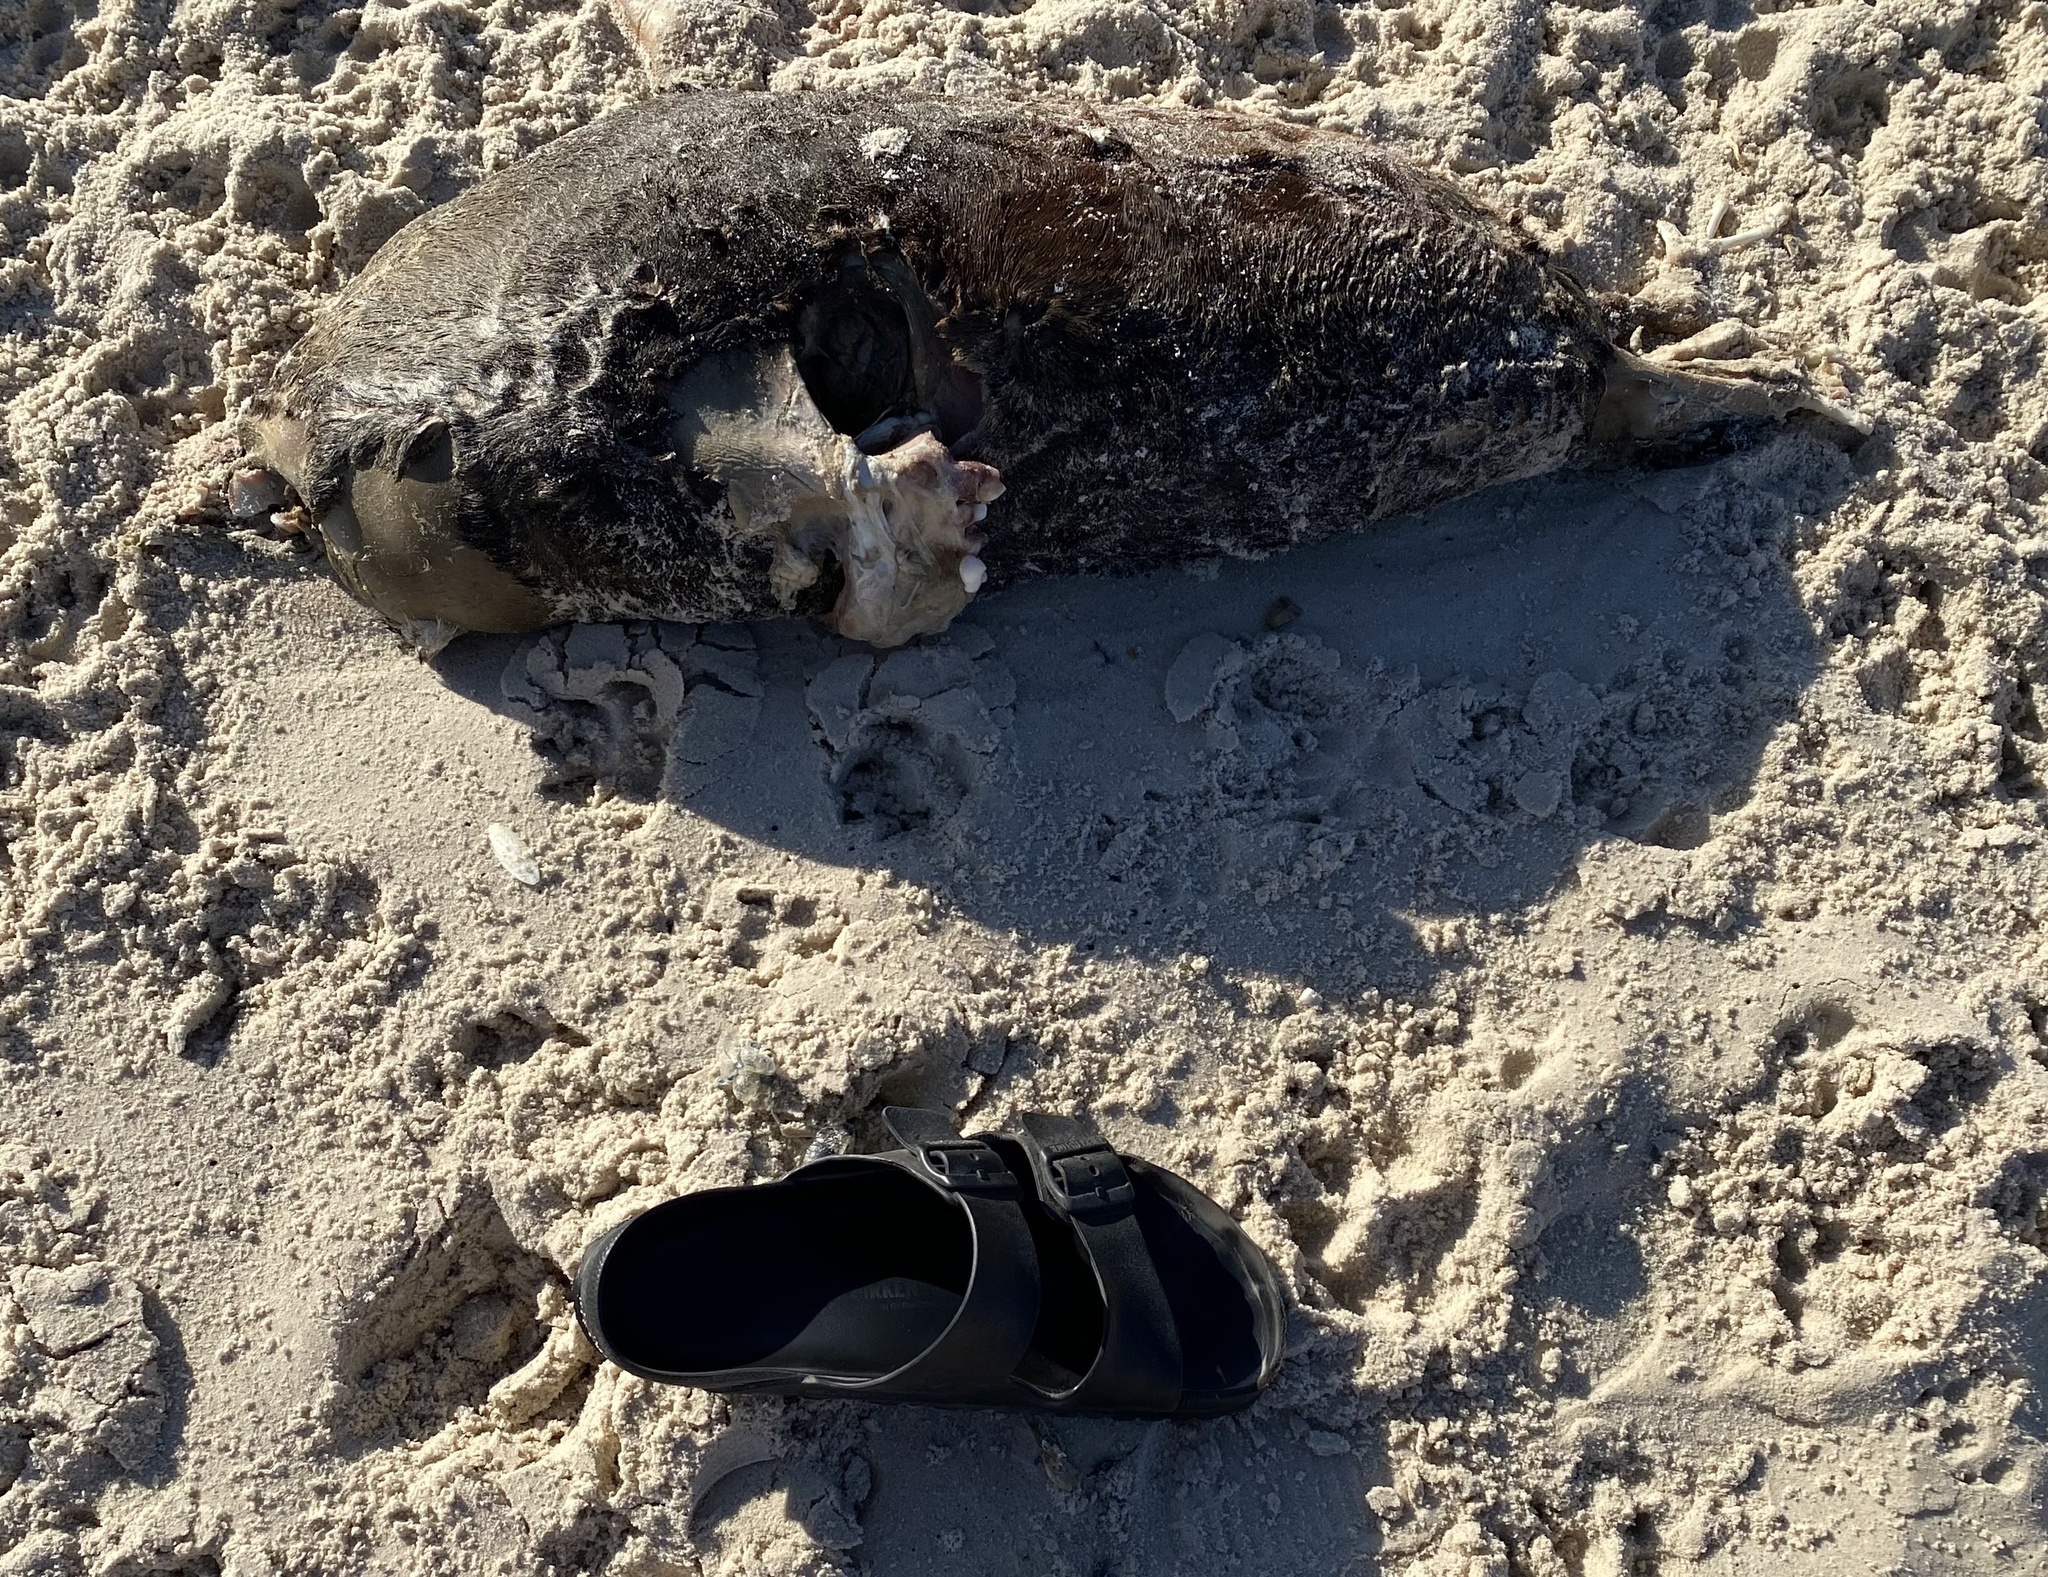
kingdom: Animalia
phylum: Chordata
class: Mammalia
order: Carnivora
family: Otariidae
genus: Arctocephalus
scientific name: Arctocephalus pusillus
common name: Brown fur seal
